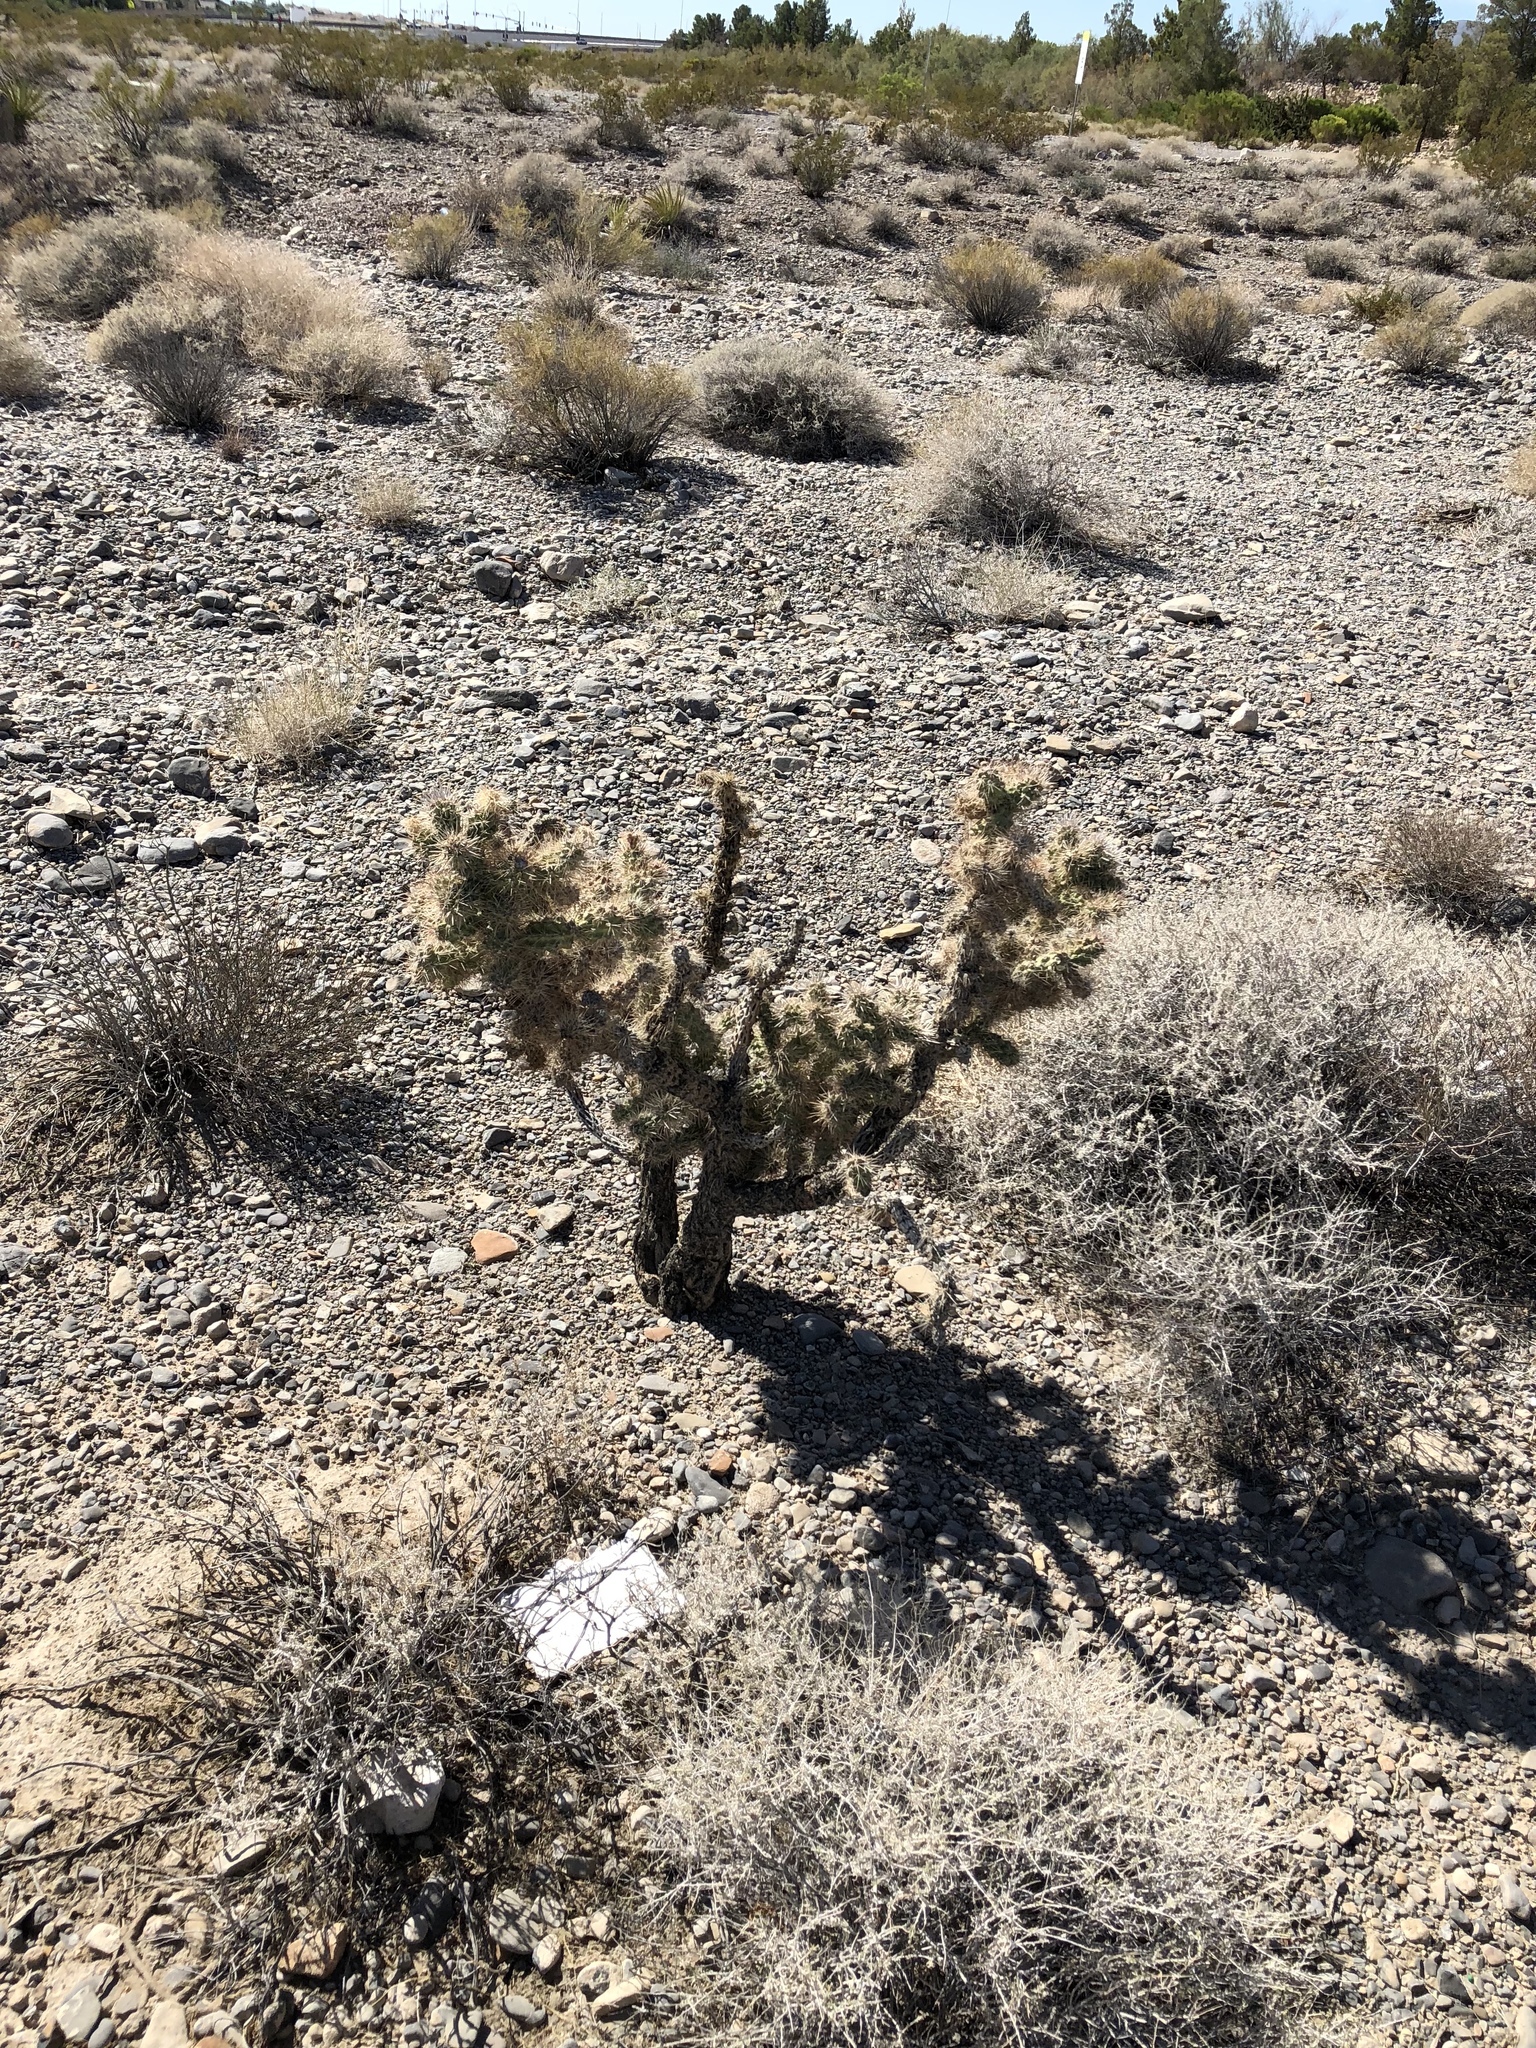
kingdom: Plantae
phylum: Tracheophyta
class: Magnoliopsida
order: Caryophyllales
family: Cactaceae
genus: Cylindropuntia
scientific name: Cylindropuntia echinocarpa
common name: Ground cholla
